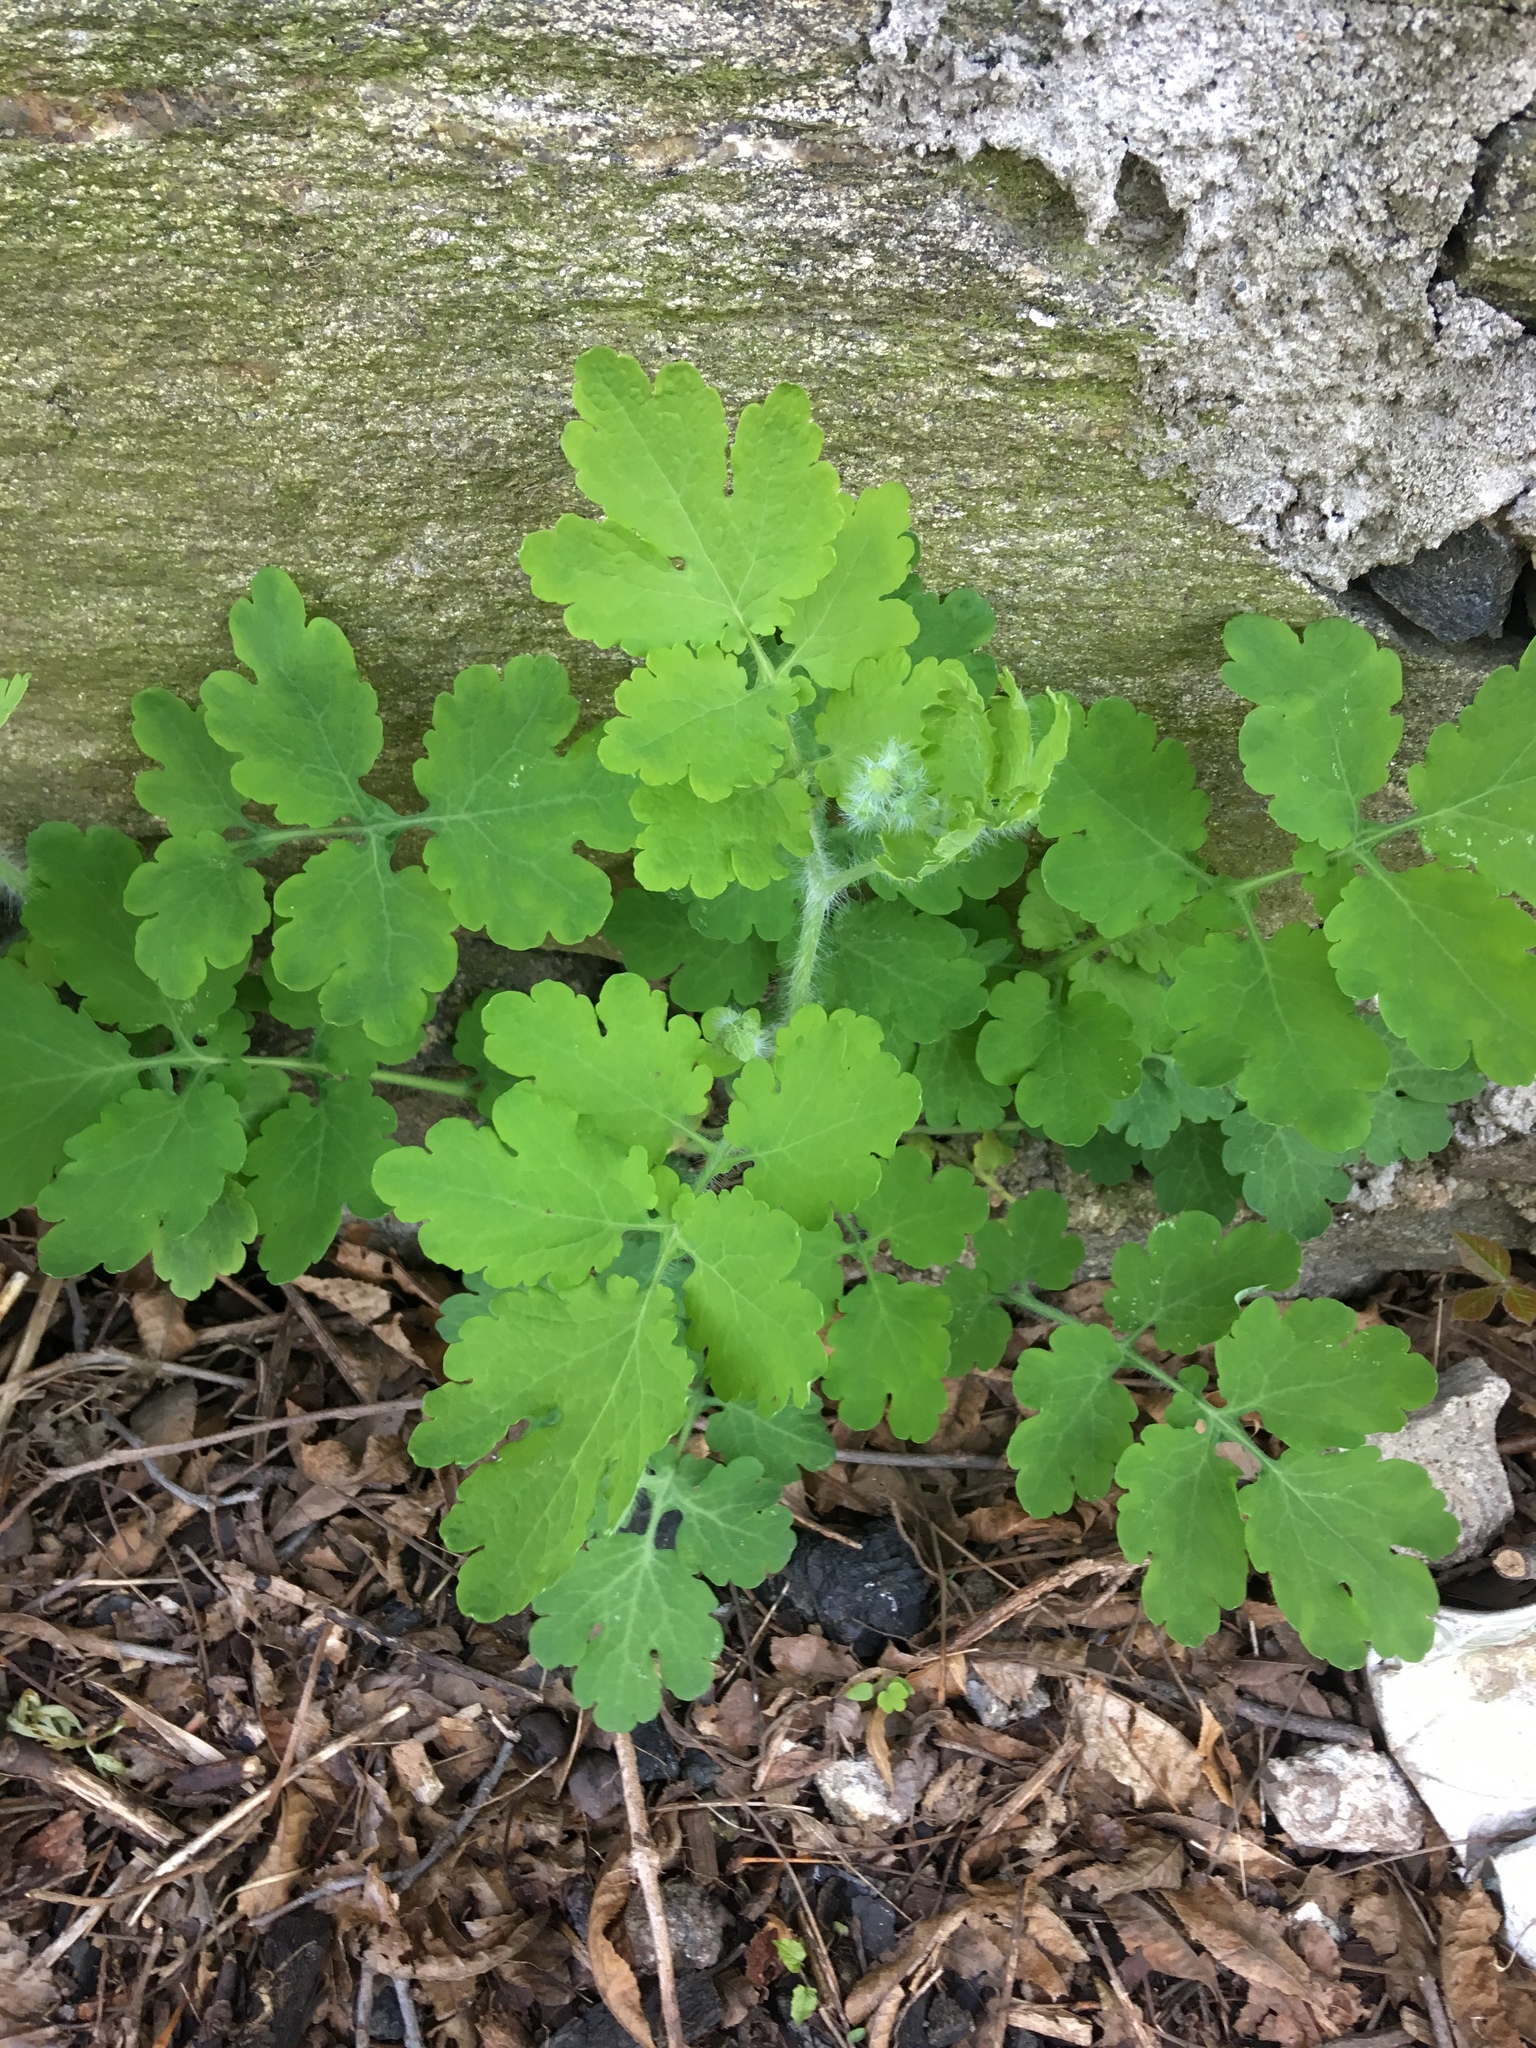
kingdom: Plantae
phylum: Tracheophyta
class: Magnoliopsida
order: Ranunculales
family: Papaveraceae
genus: Chelidonium
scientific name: Chelidonium majus
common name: Greater celandine
